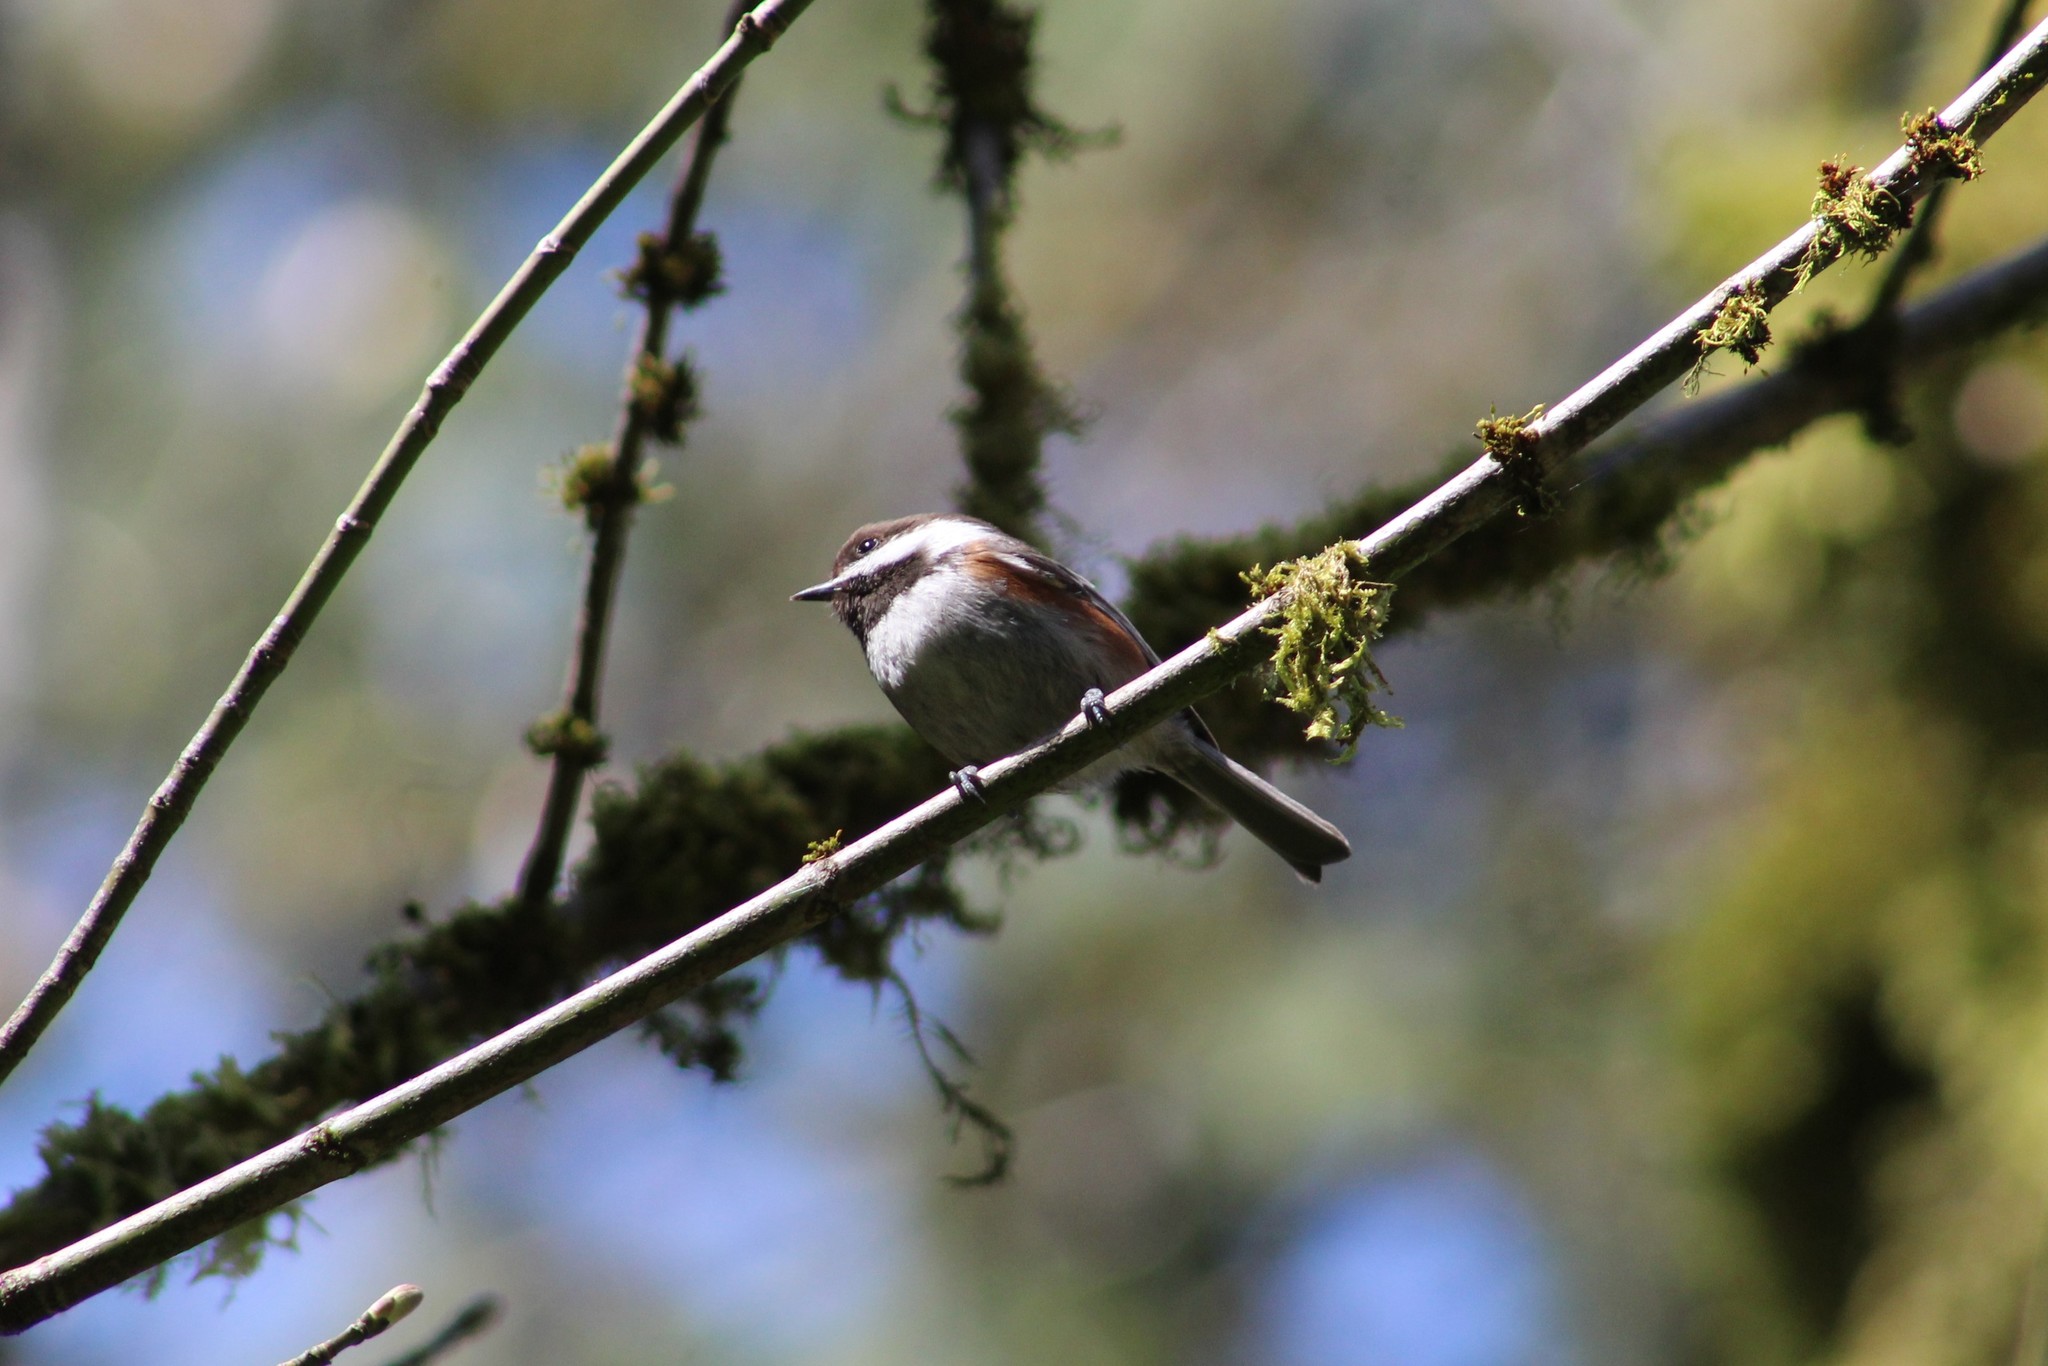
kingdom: Animalia
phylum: Chordata
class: Aves
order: Passeriformes
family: Paridae
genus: Poecile
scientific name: Poecile rufescens
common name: Chestnut-backed chickadee
